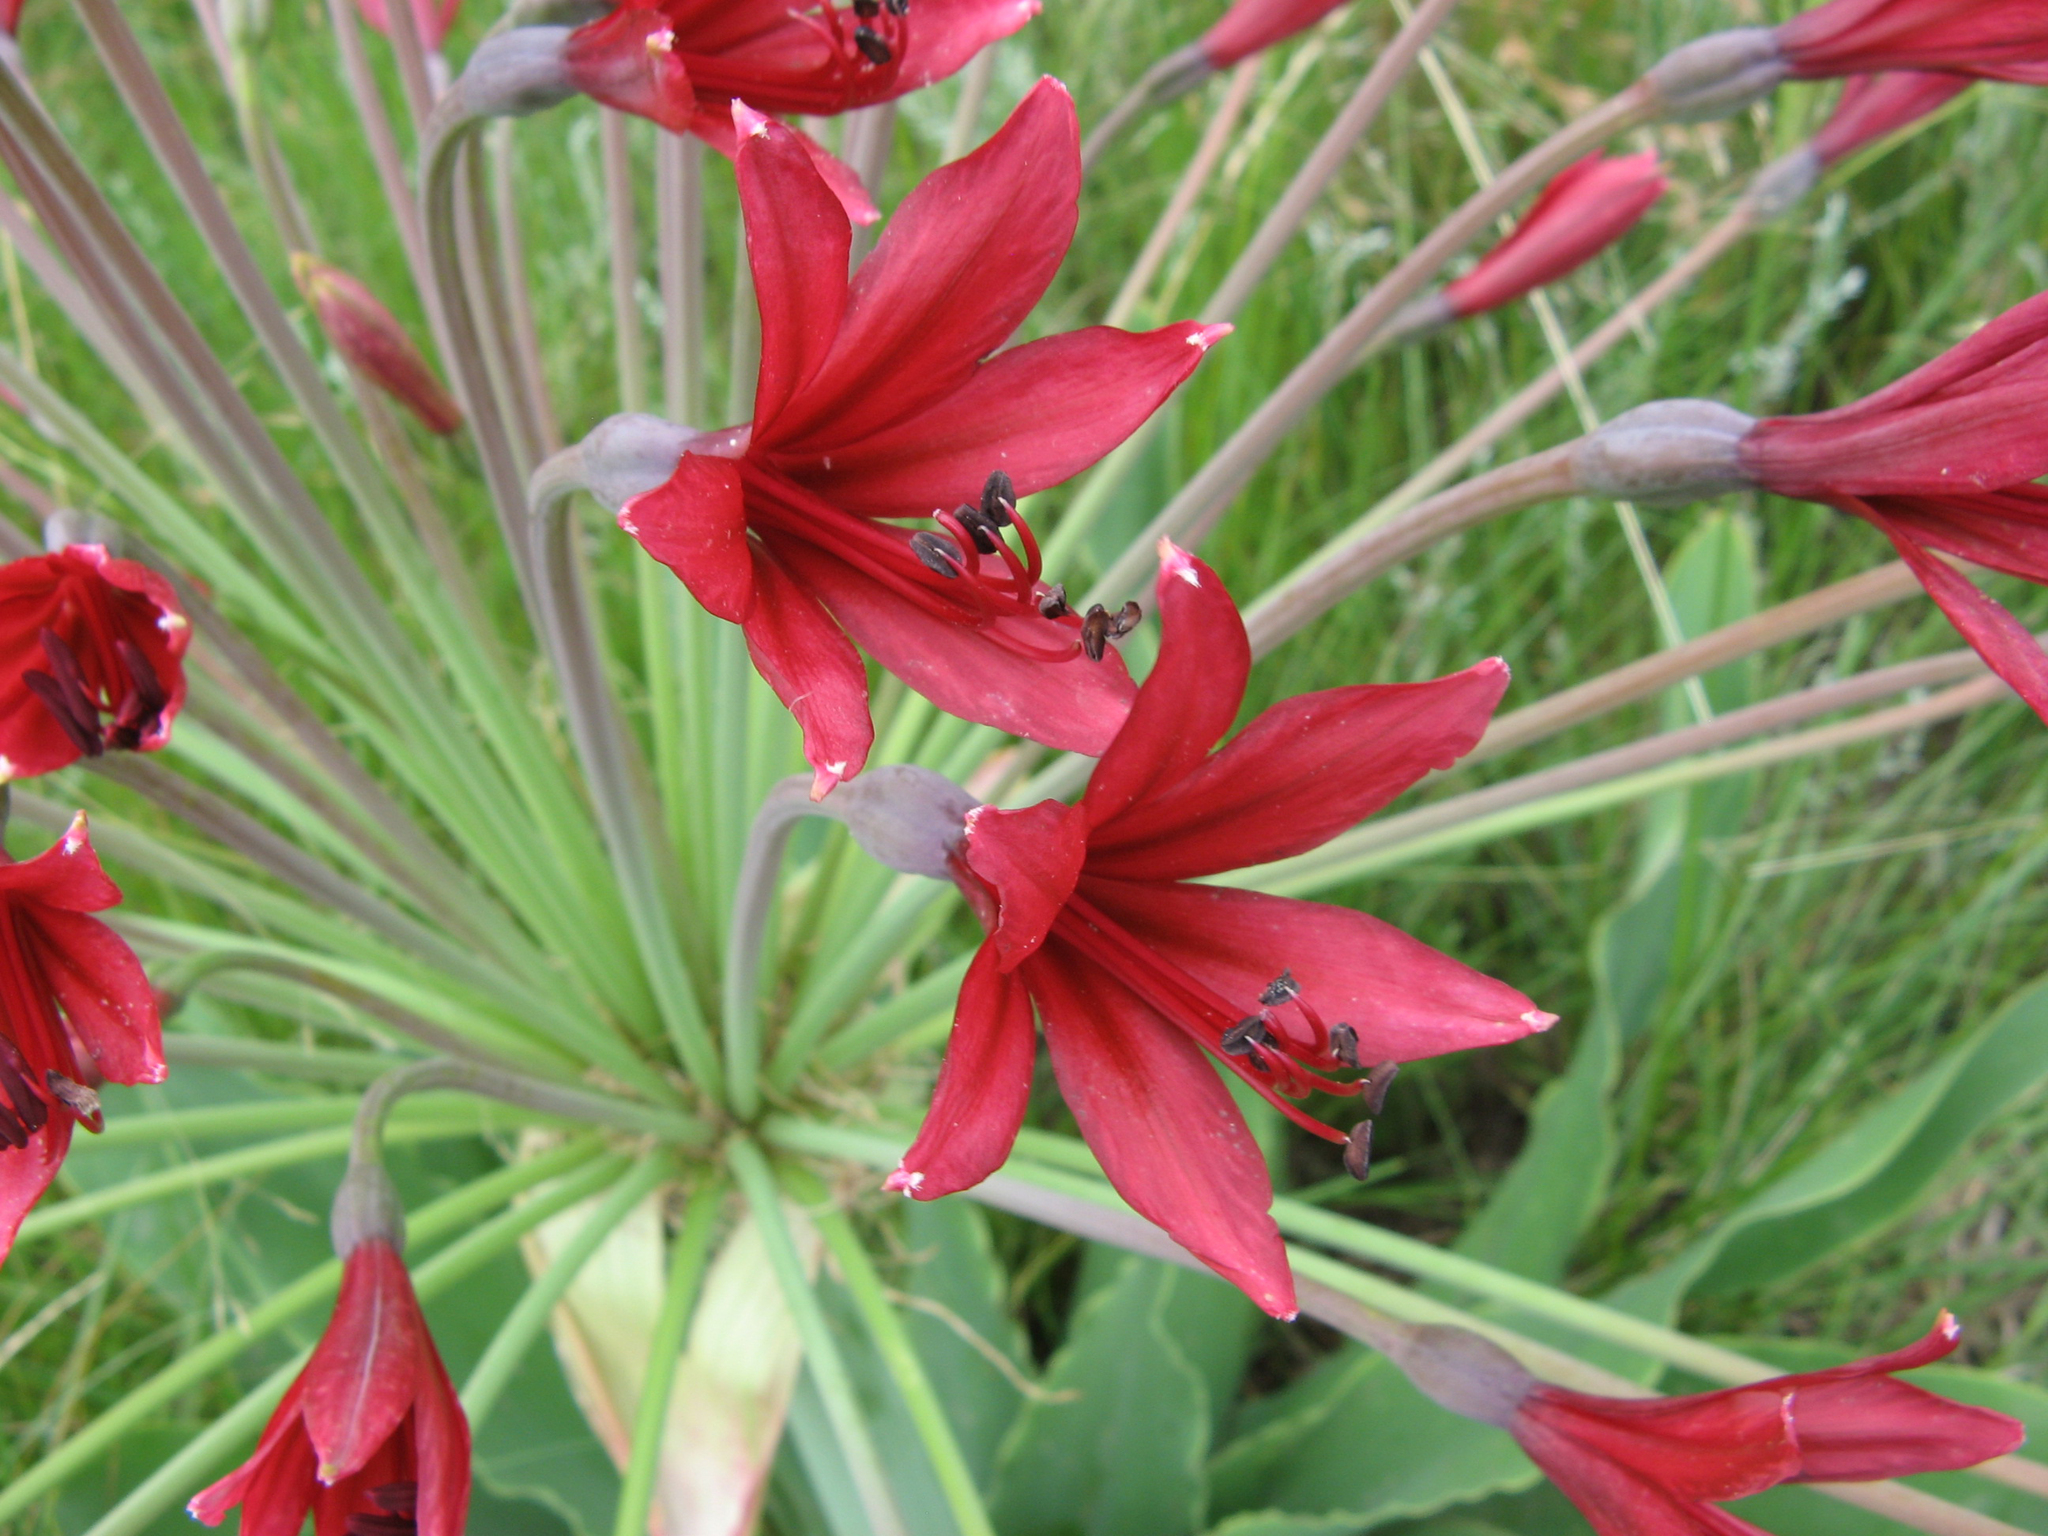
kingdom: Plantae
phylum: Tracheophyta
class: Liliopsida
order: Asparagales
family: Amaryllidaceae
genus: Brunsvigia
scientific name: Brunsvigia undulata
